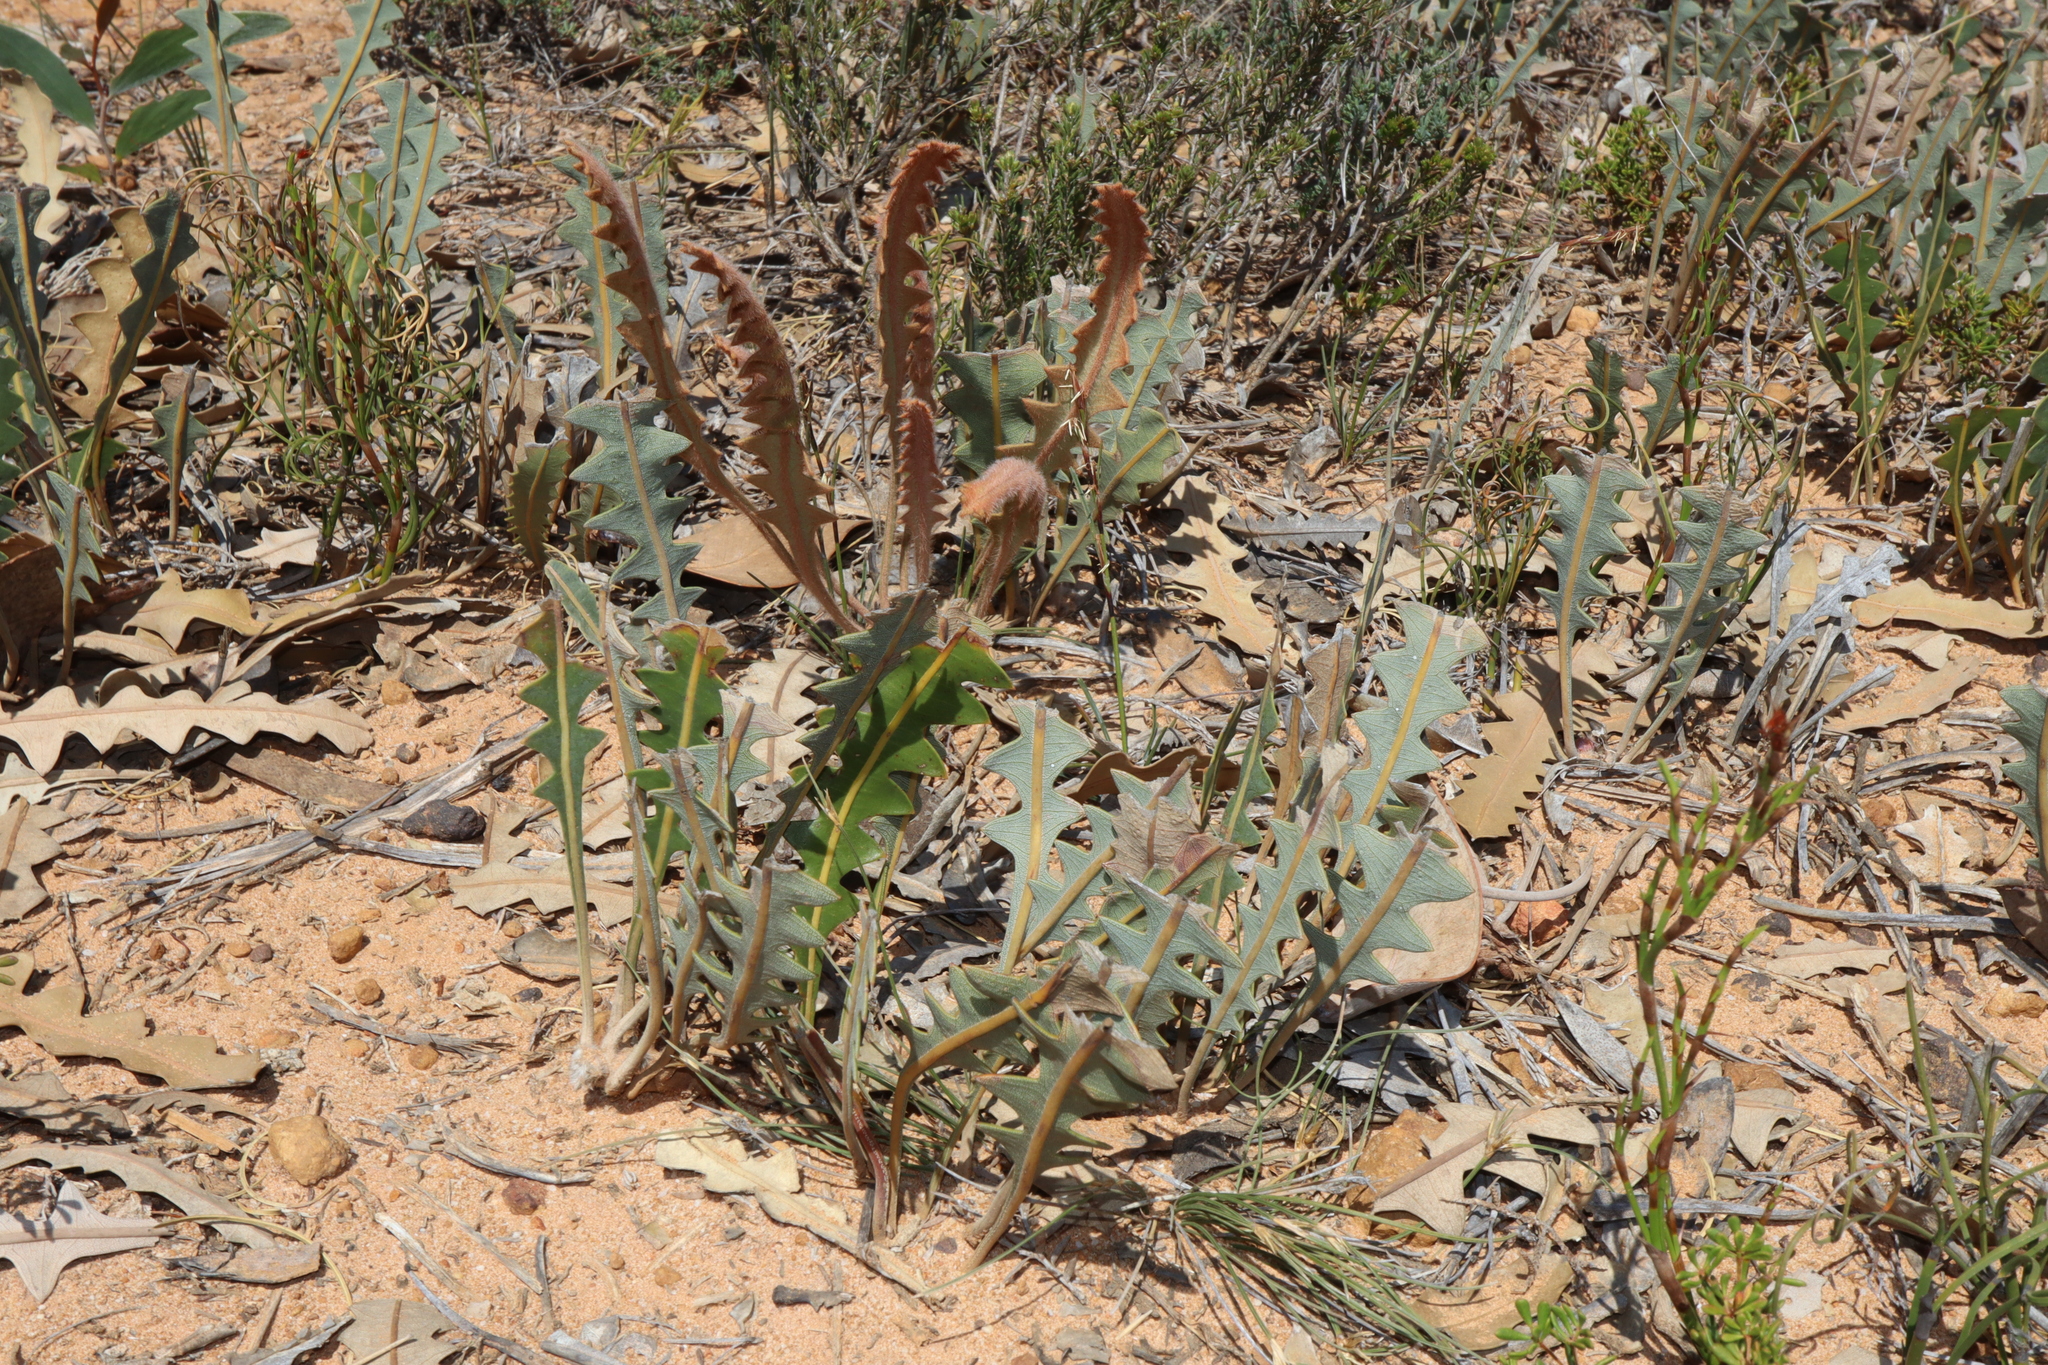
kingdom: Plantae
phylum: Tracheophyta
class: Magnoliopsida
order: Proteales
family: Proteaceae
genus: Banksia
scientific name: Banksia gardneri
